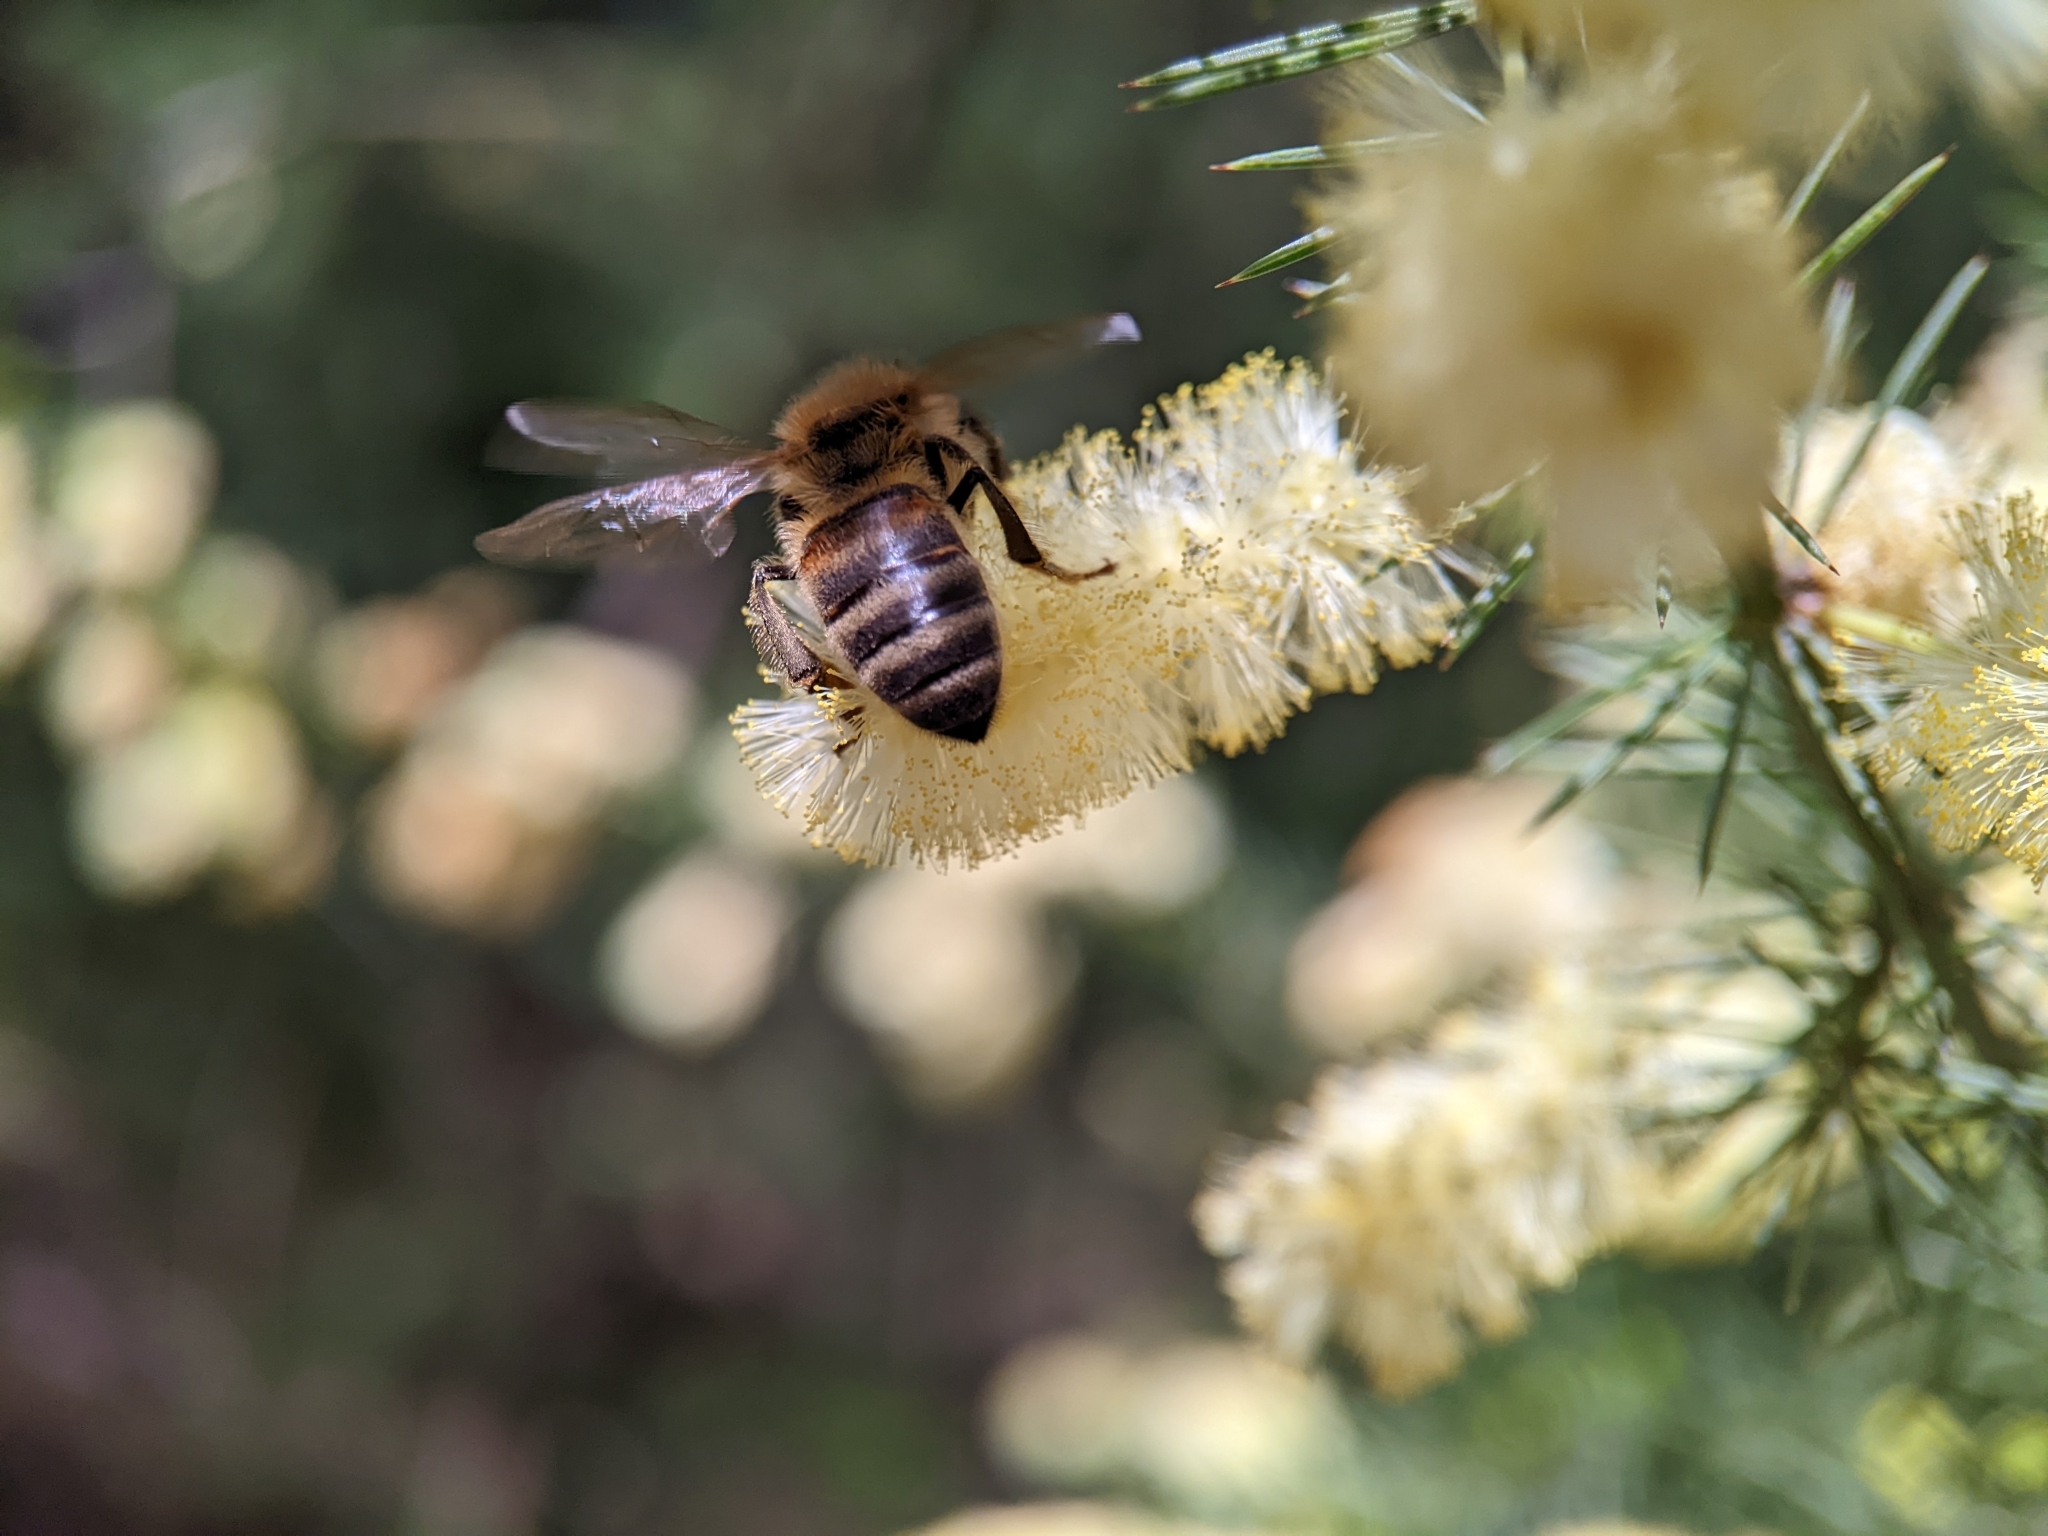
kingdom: Animalia
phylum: Arthropoda
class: Insecta
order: Hymenoptera
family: Apidae
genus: Apis
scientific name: Apis mellifera
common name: Honey bee
